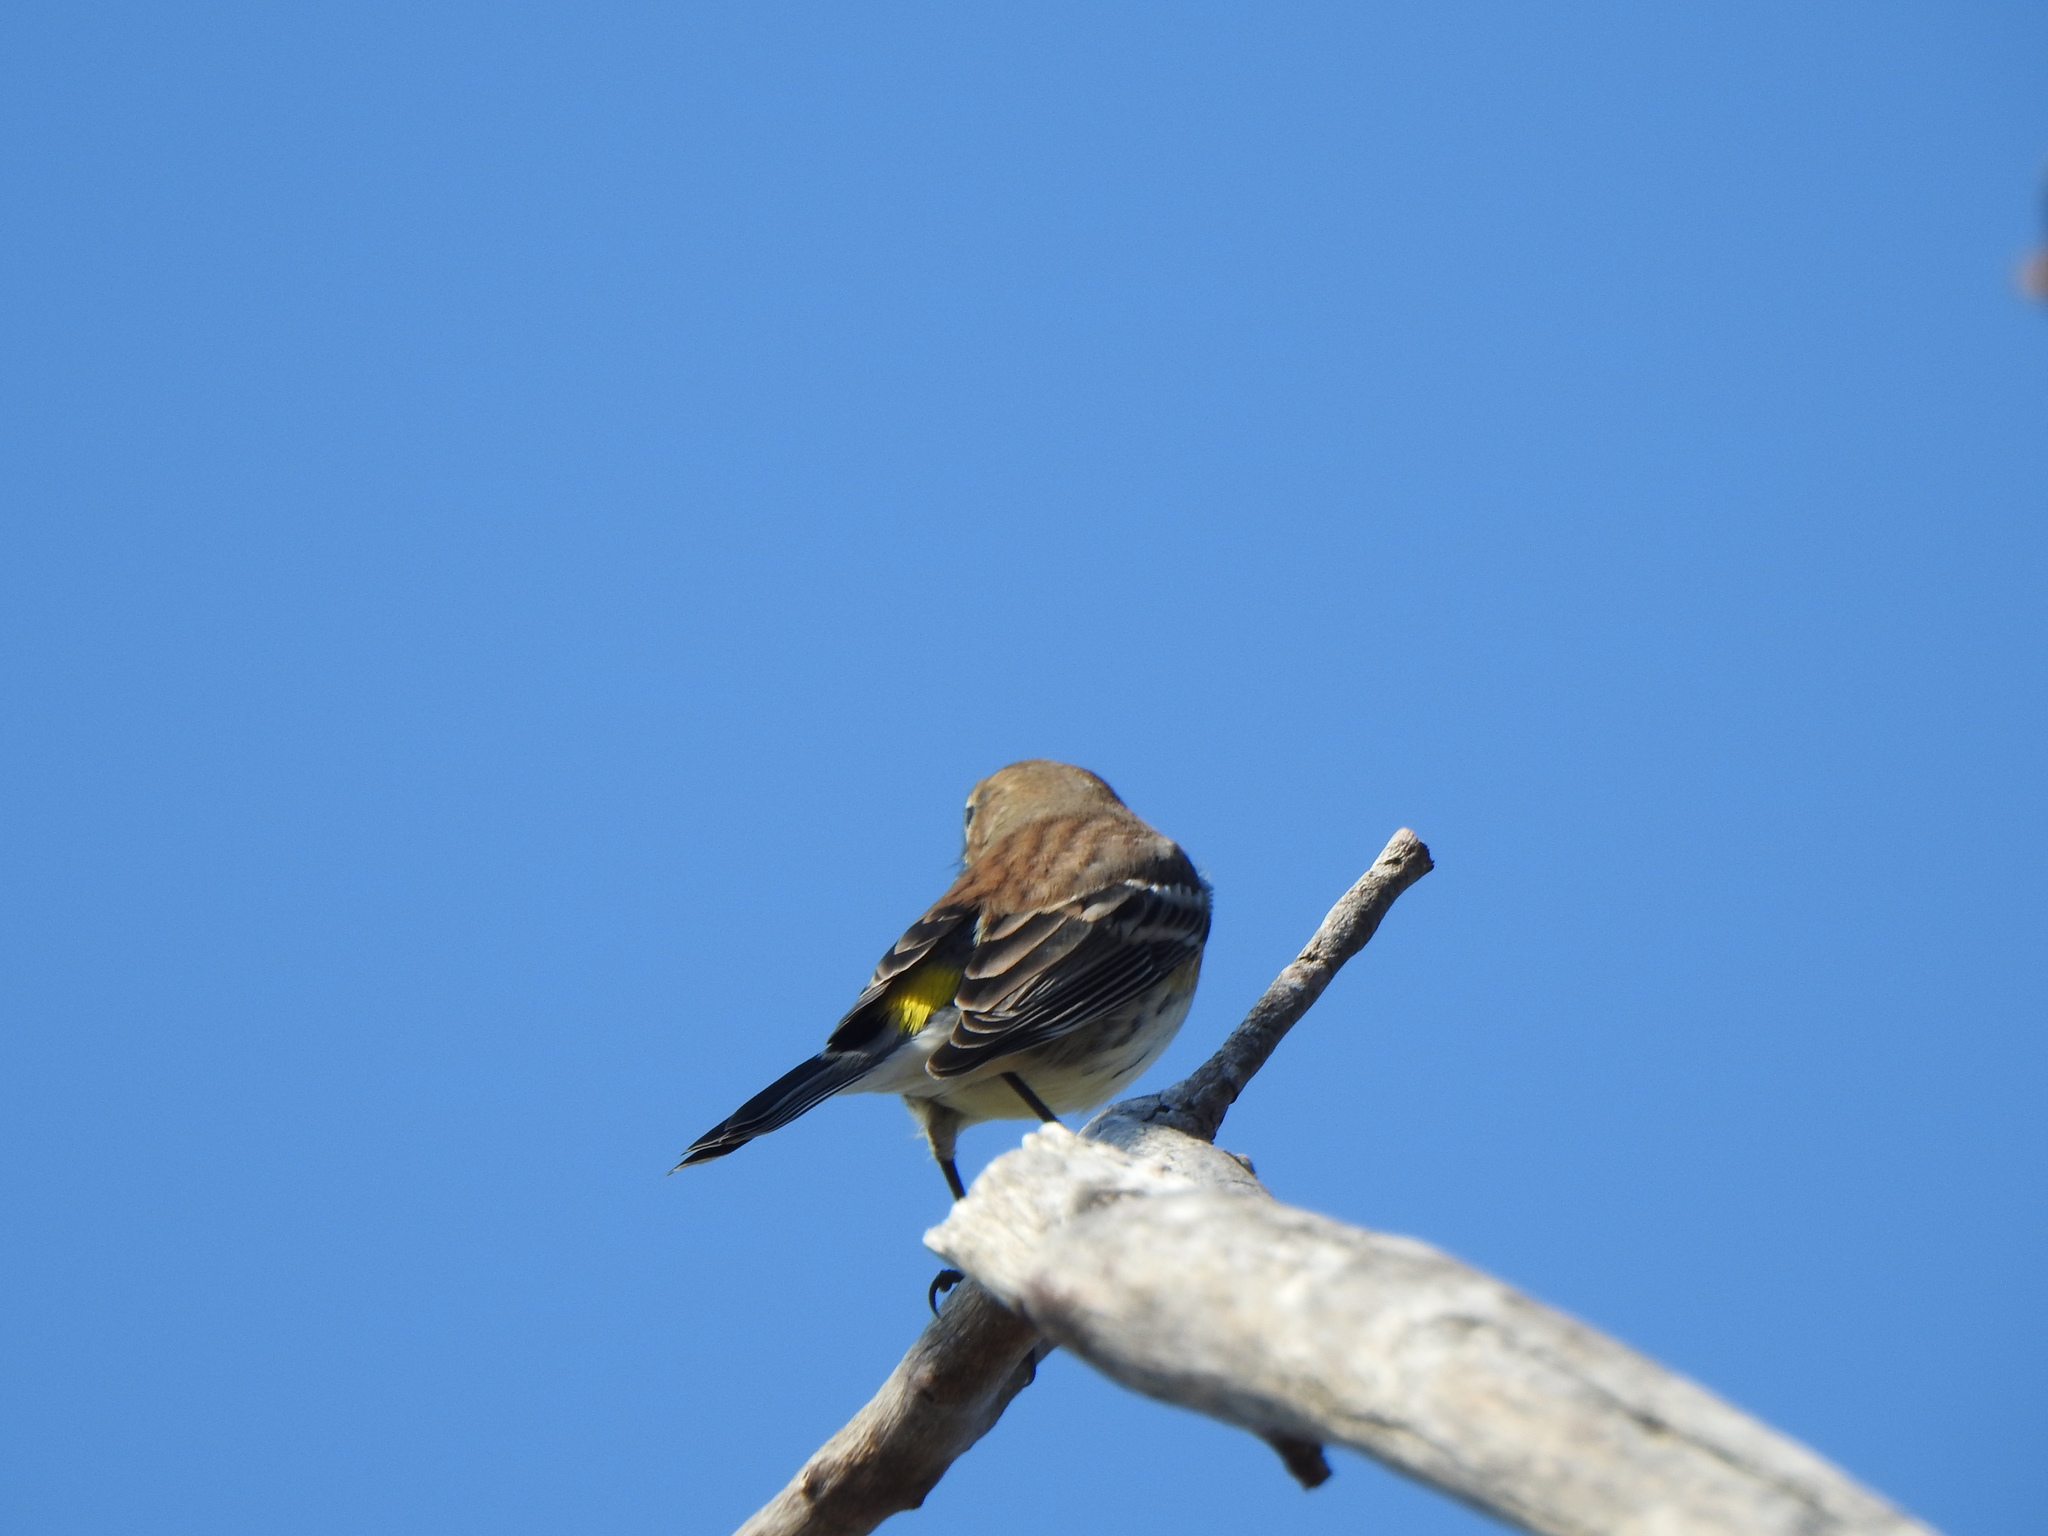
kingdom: Animalia
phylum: Chordata
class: Aves
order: Passeriformes
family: Parulidae
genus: Setophaga
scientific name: Setophaga coronata
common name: Myrtle warbler
